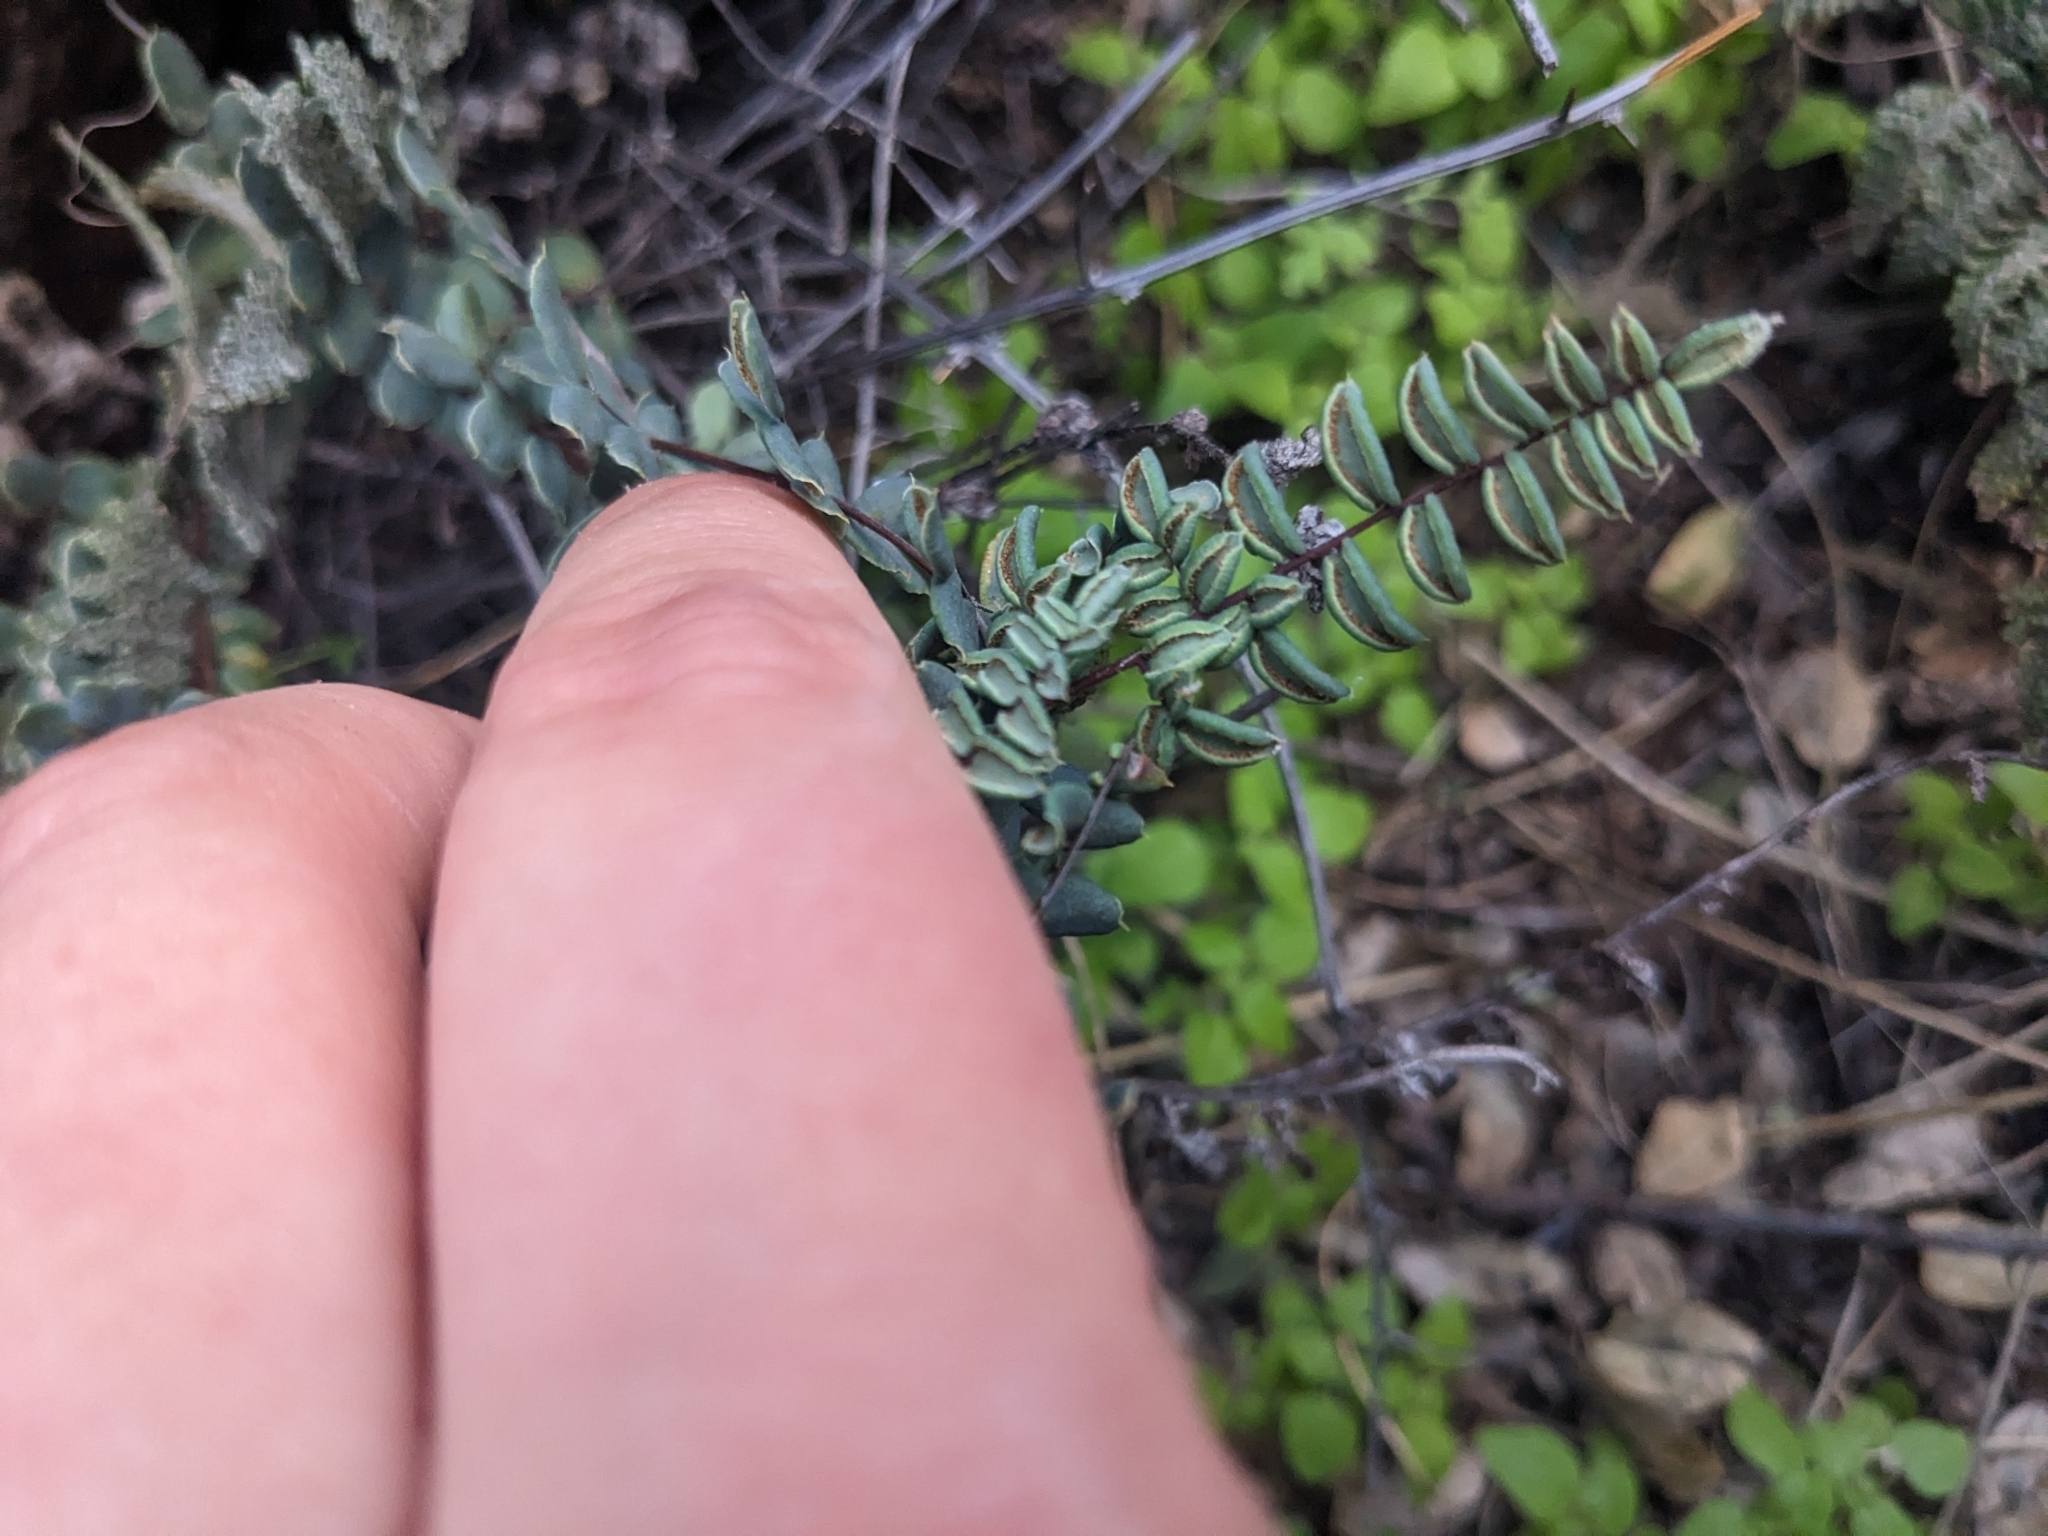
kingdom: Plantae
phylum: Tracheophyta
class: Polypodiopsida
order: Polypodiales
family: Pteridaceae
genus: Pellaea
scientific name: Pellaea truncata
